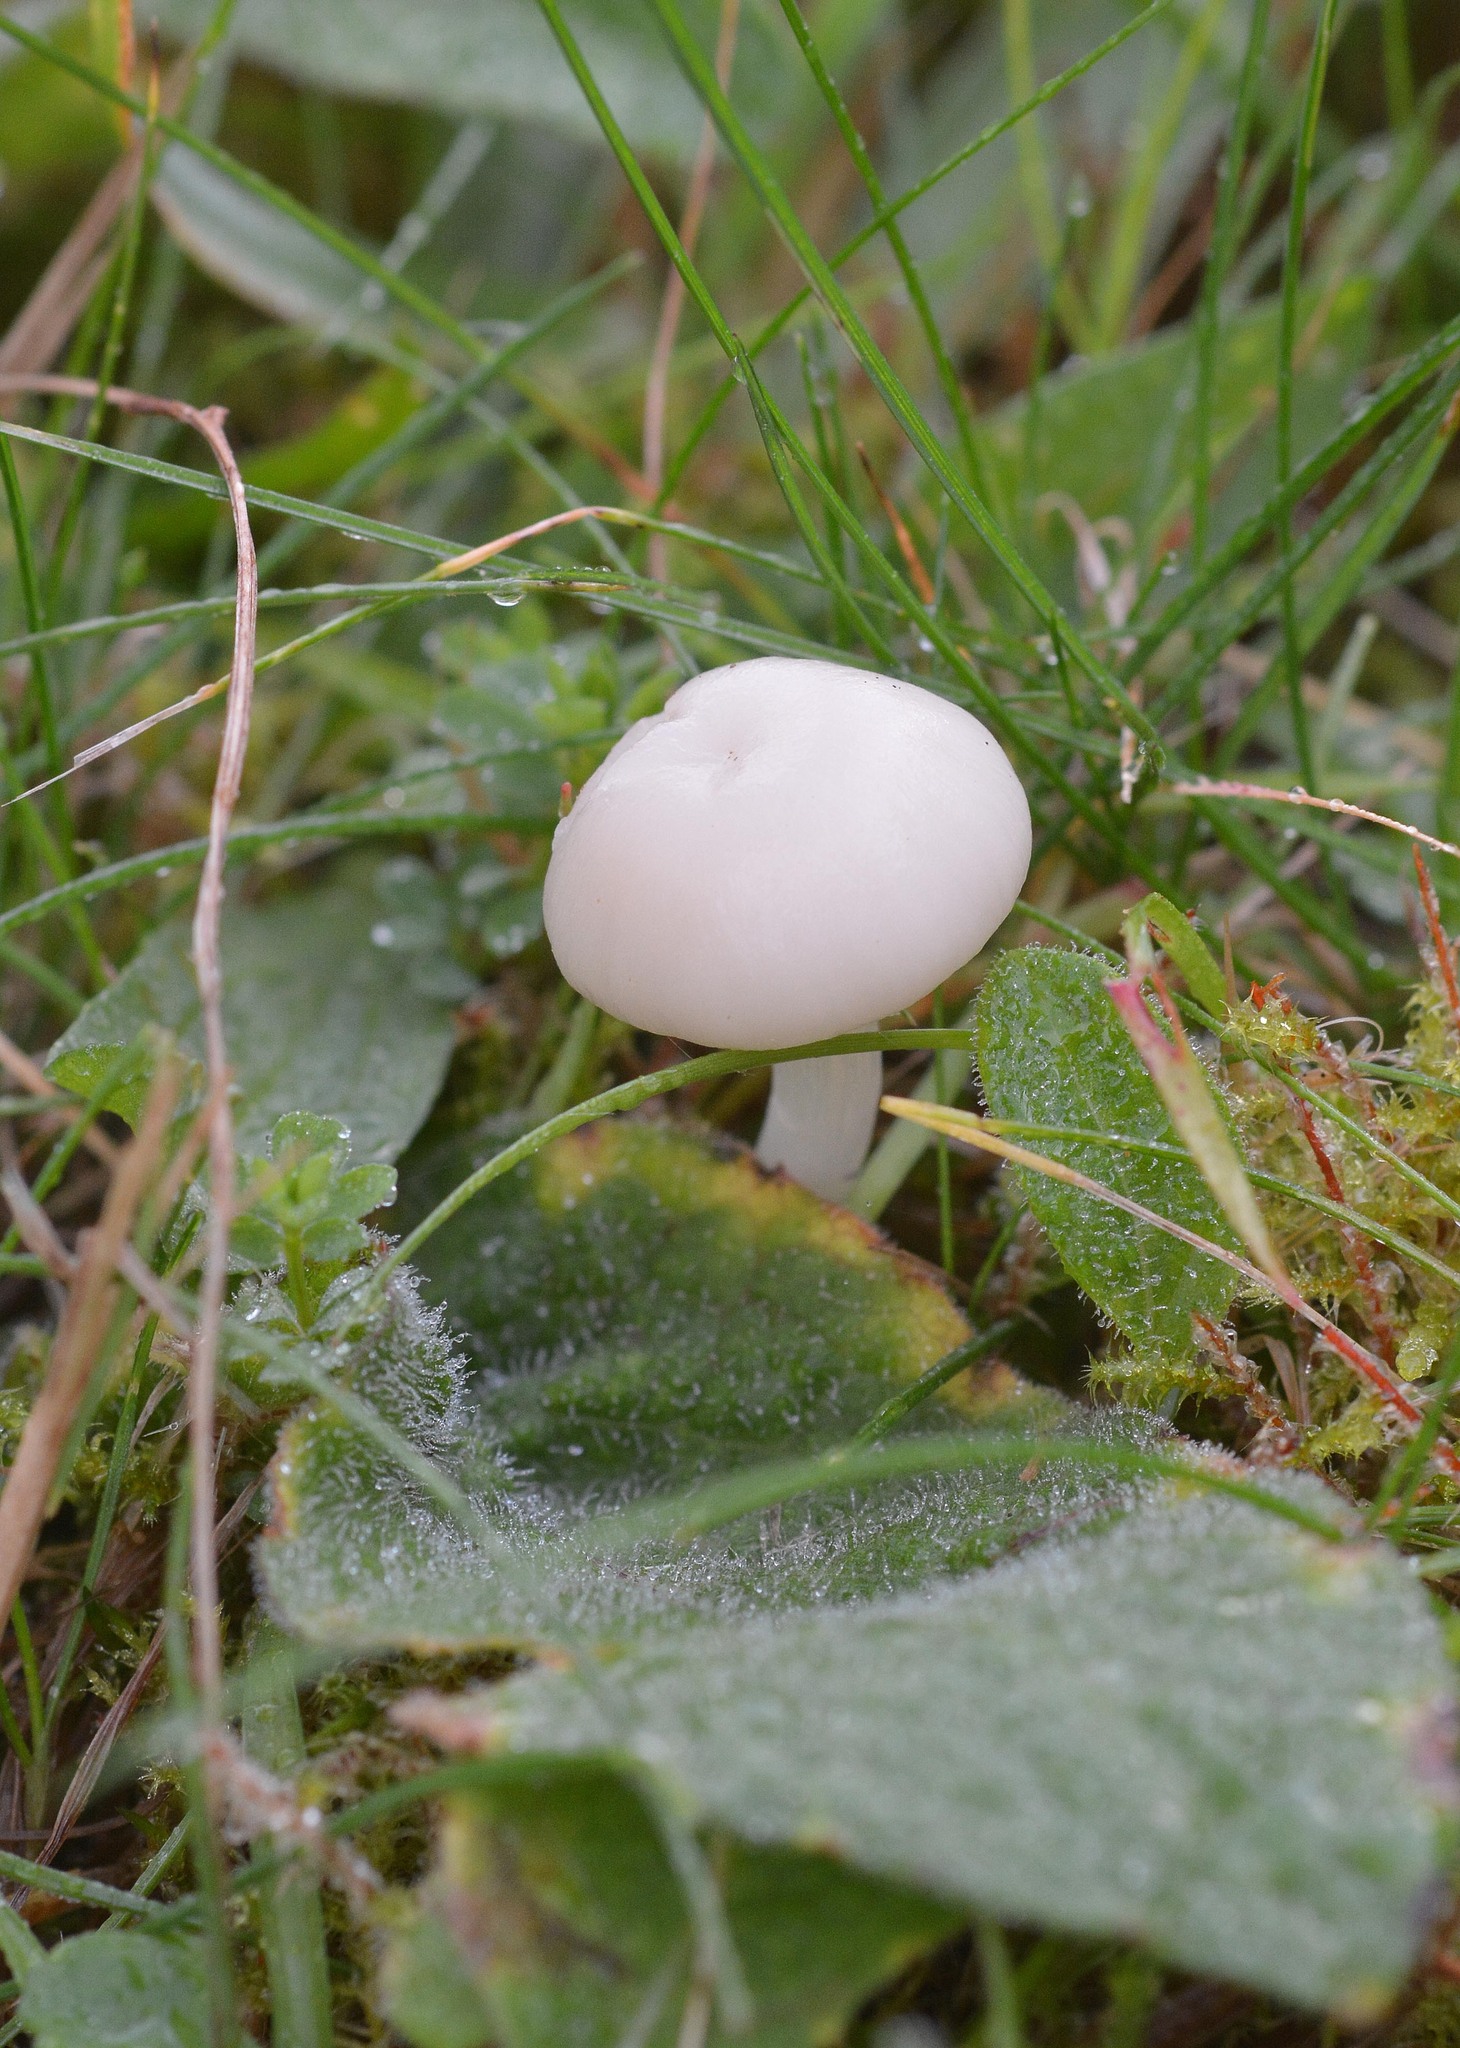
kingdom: Fungi
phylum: Basidiomycota
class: Agaricomycetes
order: Agaricales
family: Hygrophoraceae
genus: Cuphophyllus
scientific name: Cuphophyllus virgineus
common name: Snowy waxcap
